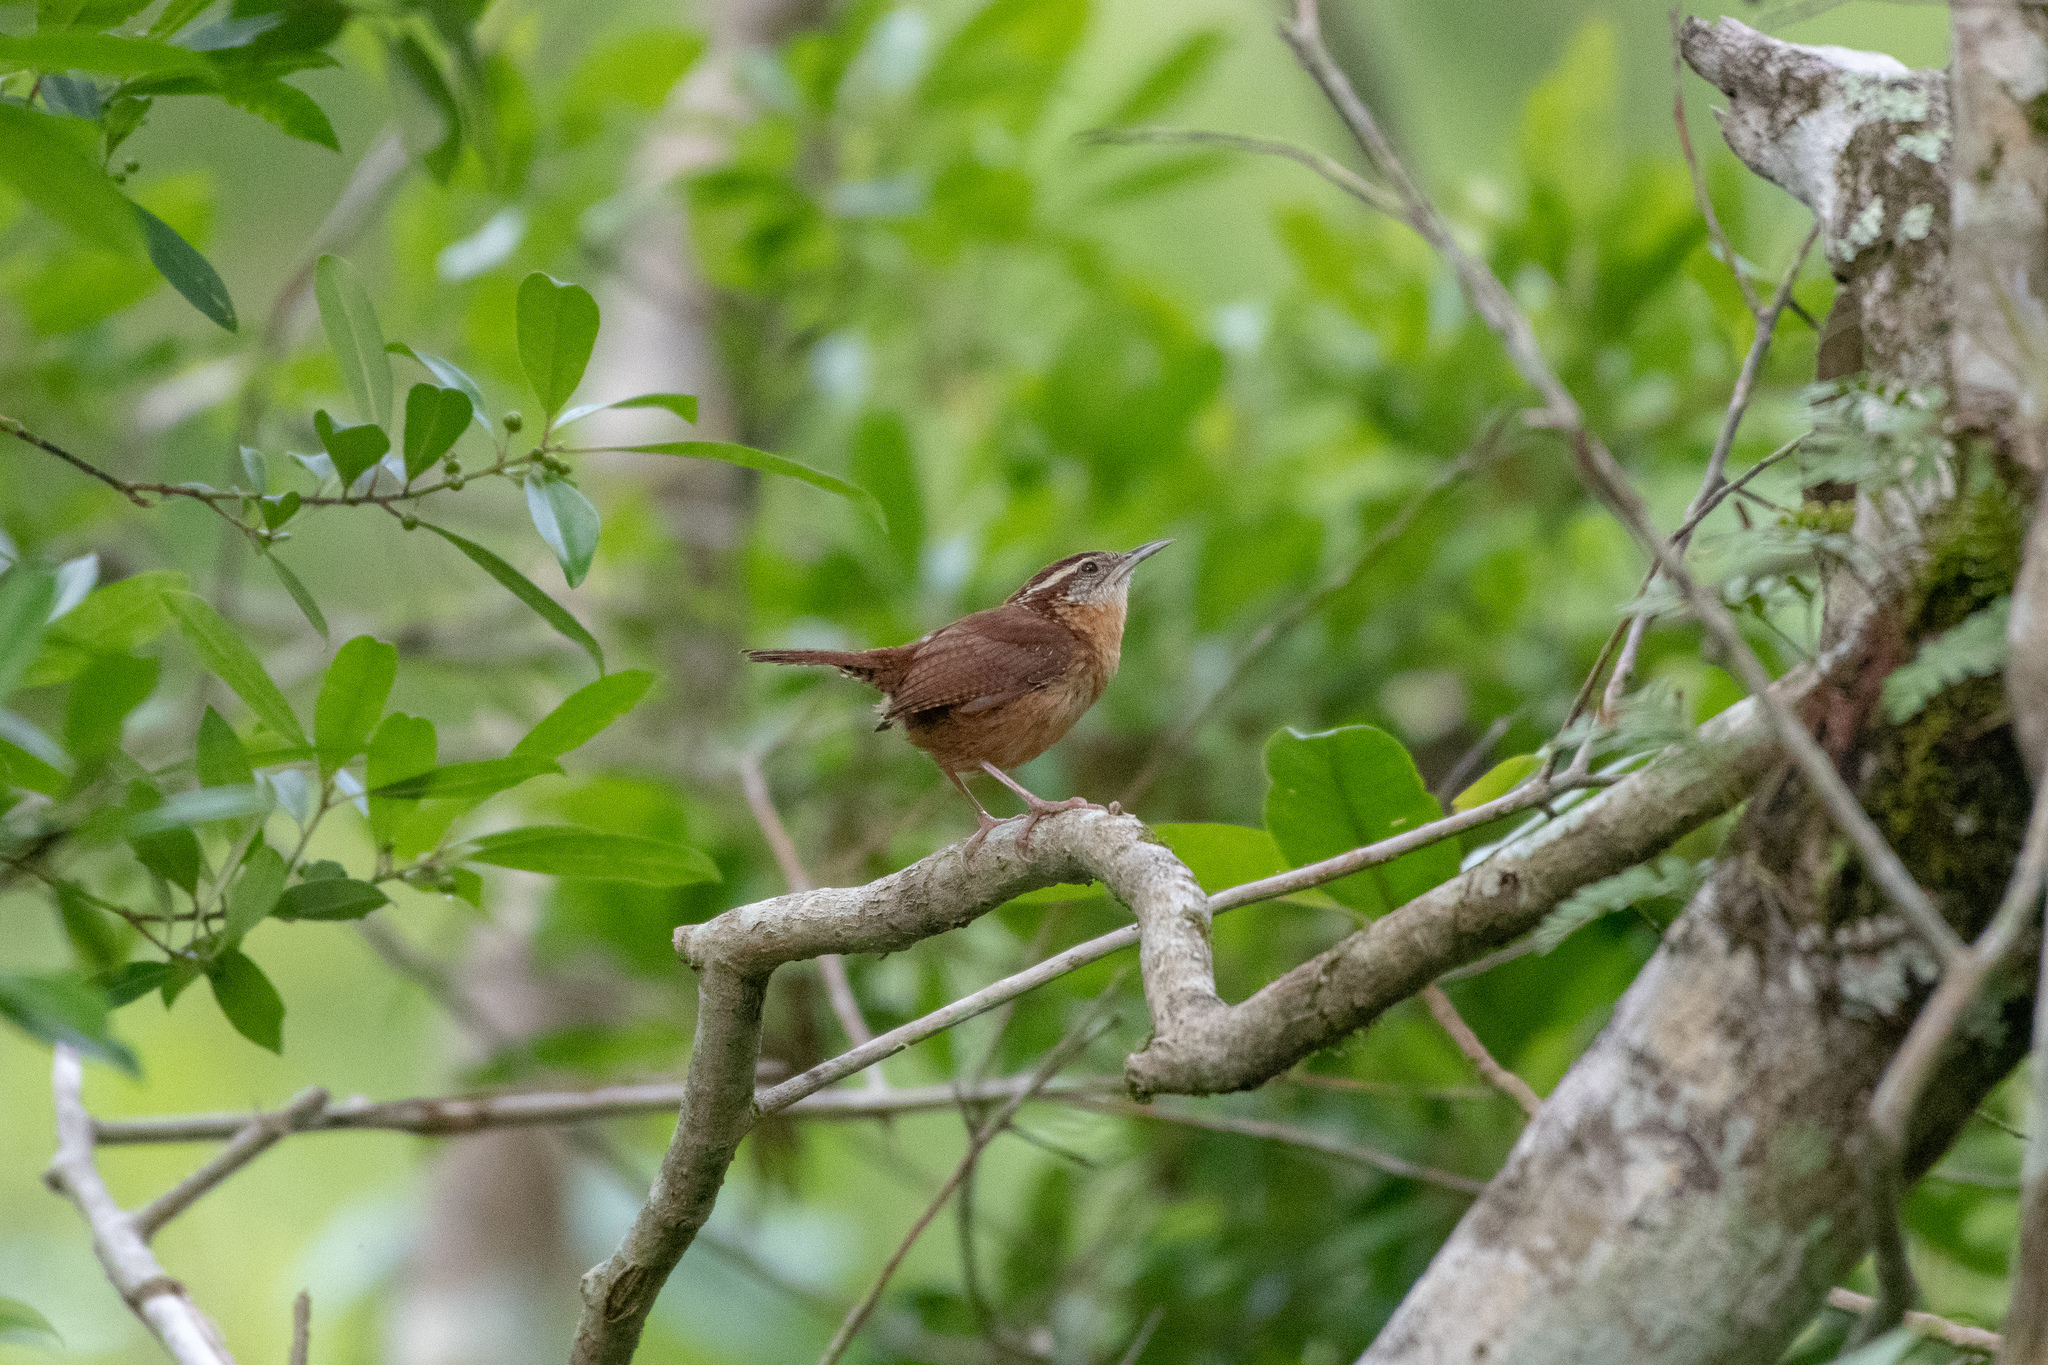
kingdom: Animalia
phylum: Chordata
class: Aves
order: Passeriformes
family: Troglodytidae
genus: Thryothorus
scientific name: Thryothorus ludovicianus
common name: Carolina wren
